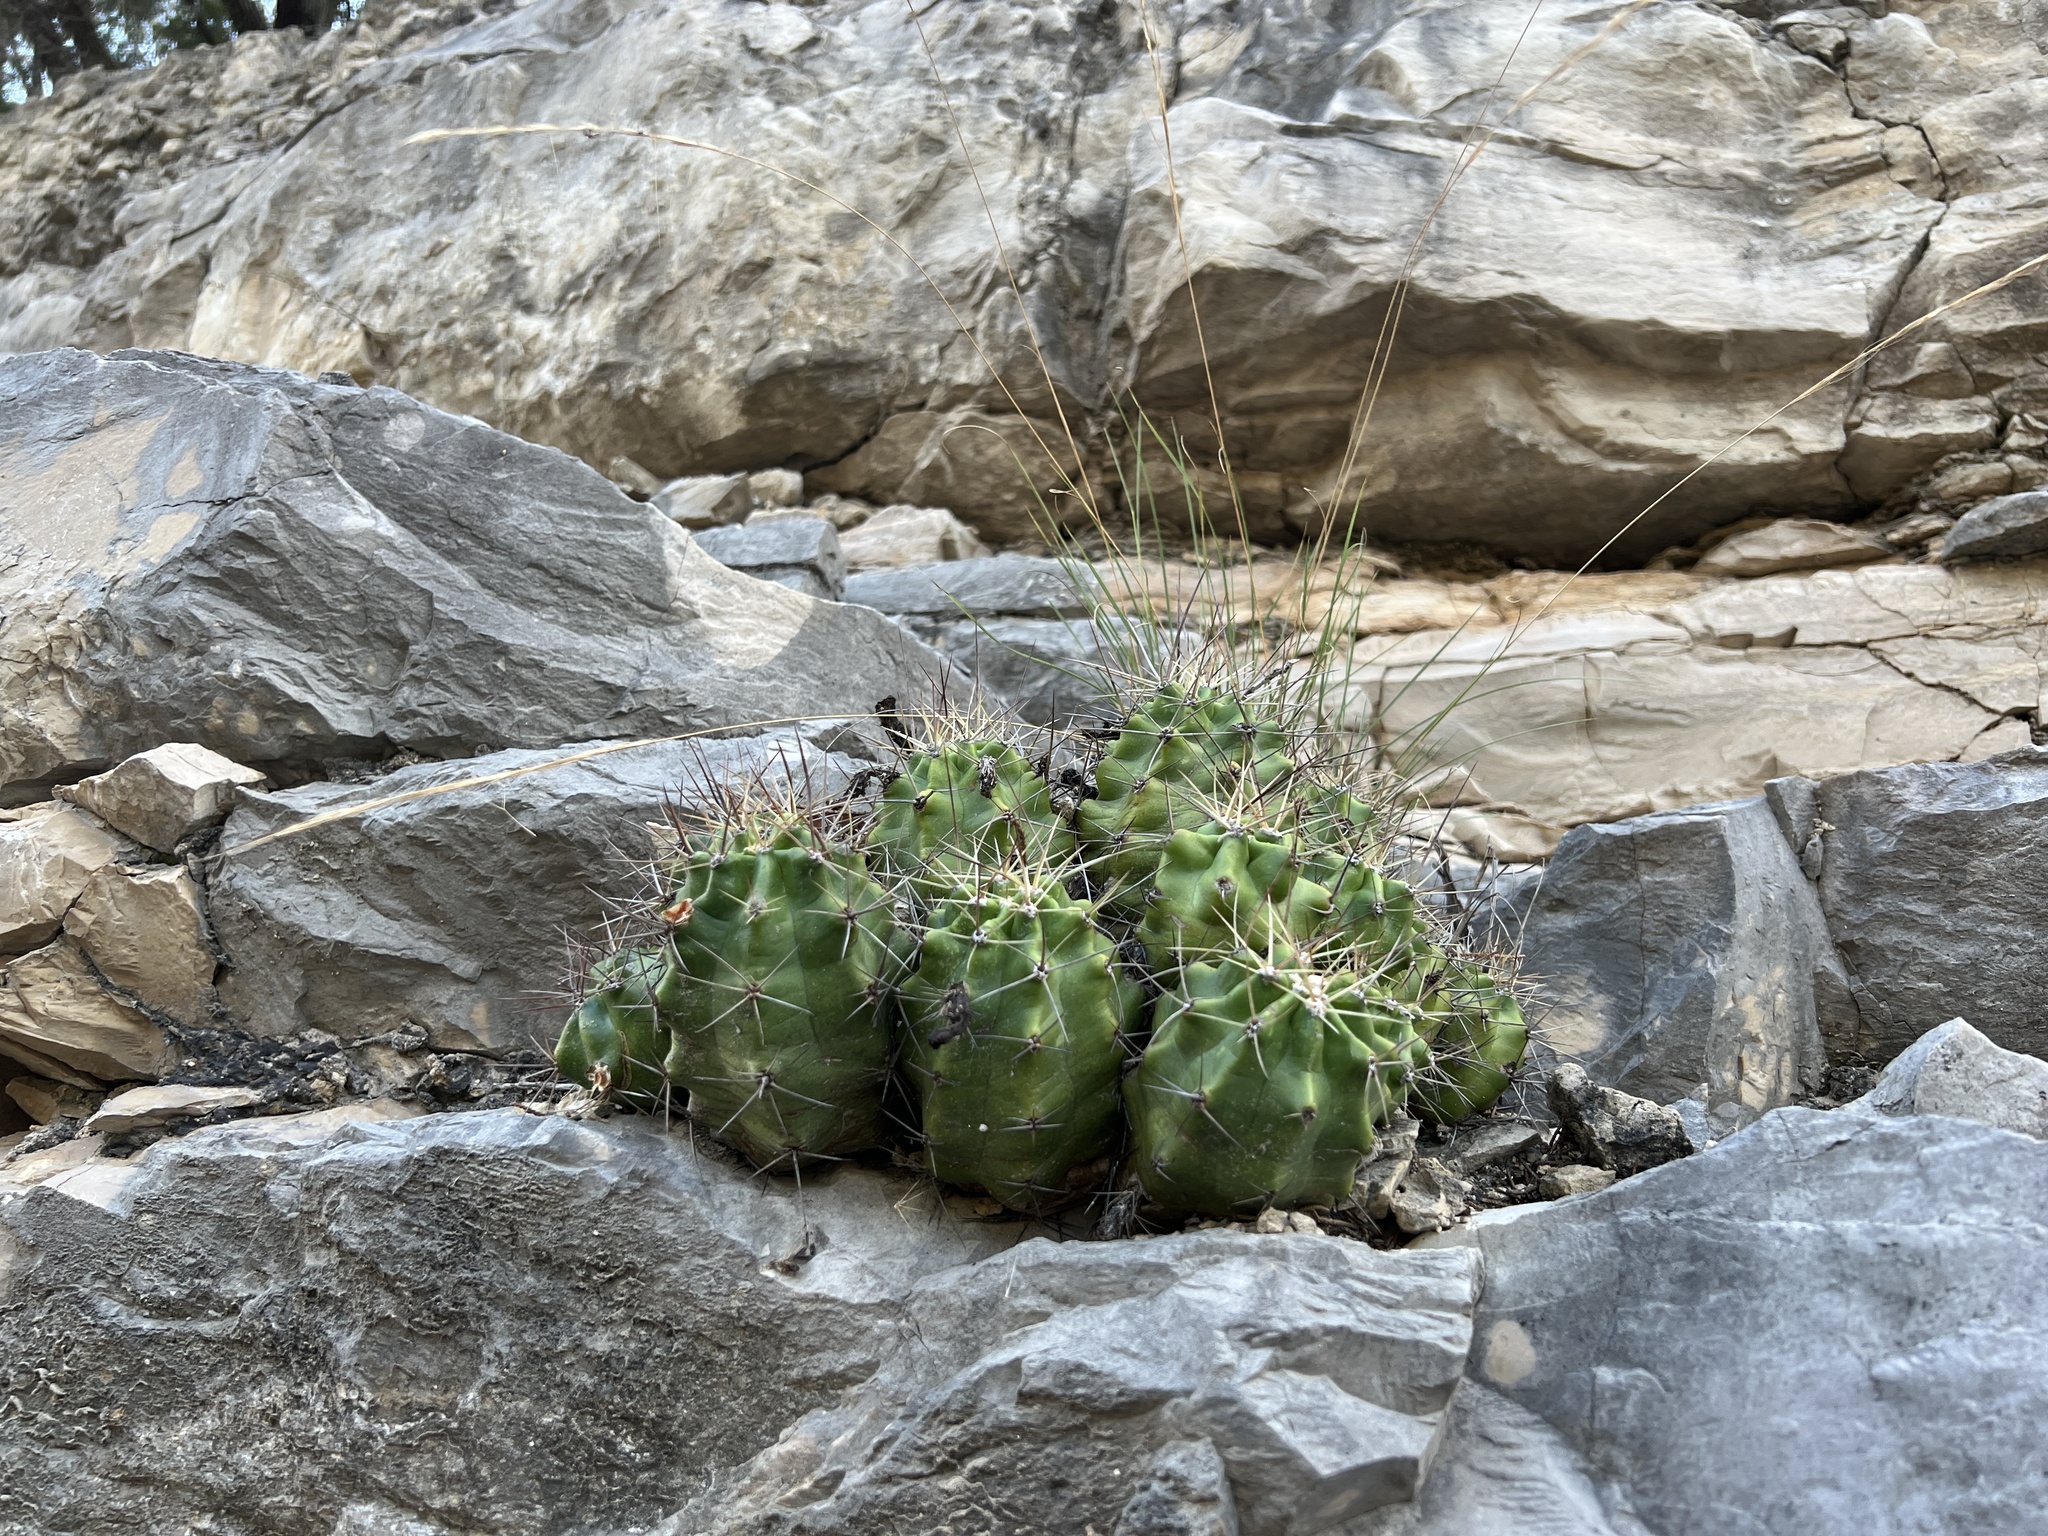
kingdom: Plantae
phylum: Tracheophyta
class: Magnoliopsida
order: Caryophyllales
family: Cactaceae
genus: Echinocereus
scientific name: Echinocereus coccineus
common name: Scarlet hedgehog cactus
